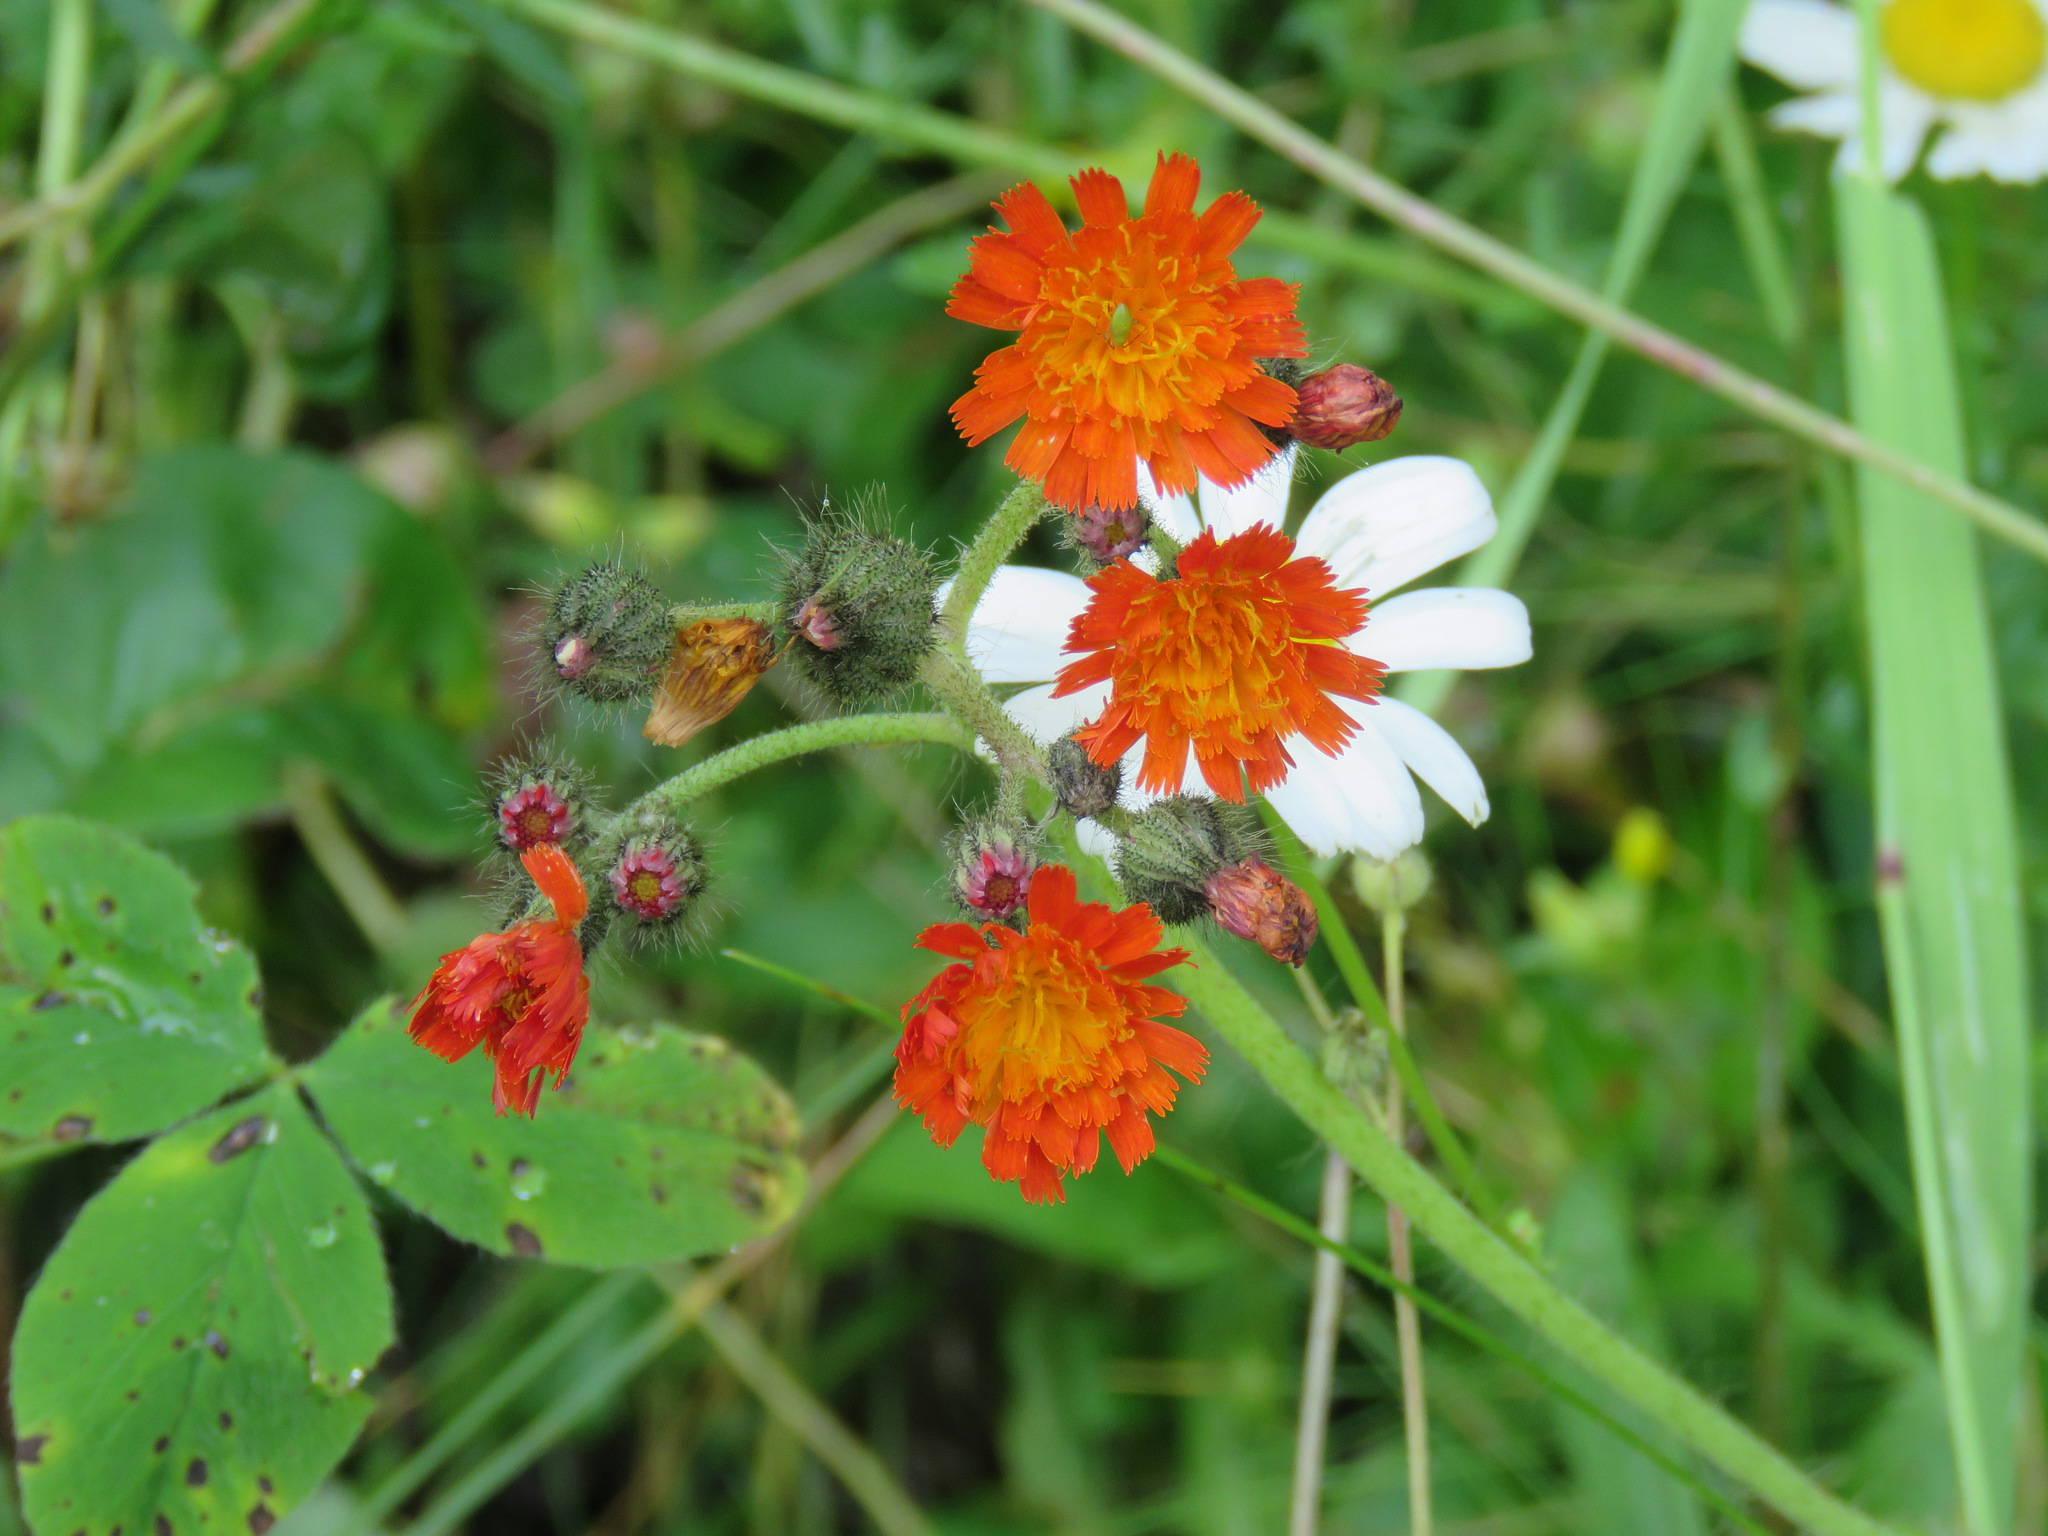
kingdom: Plantae
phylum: Tracheophyta
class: Magnoliopsida
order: Asterales
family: Asteraceae
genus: Pilosella
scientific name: Pilosella aurantiaca
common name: Fox-and-cubs
